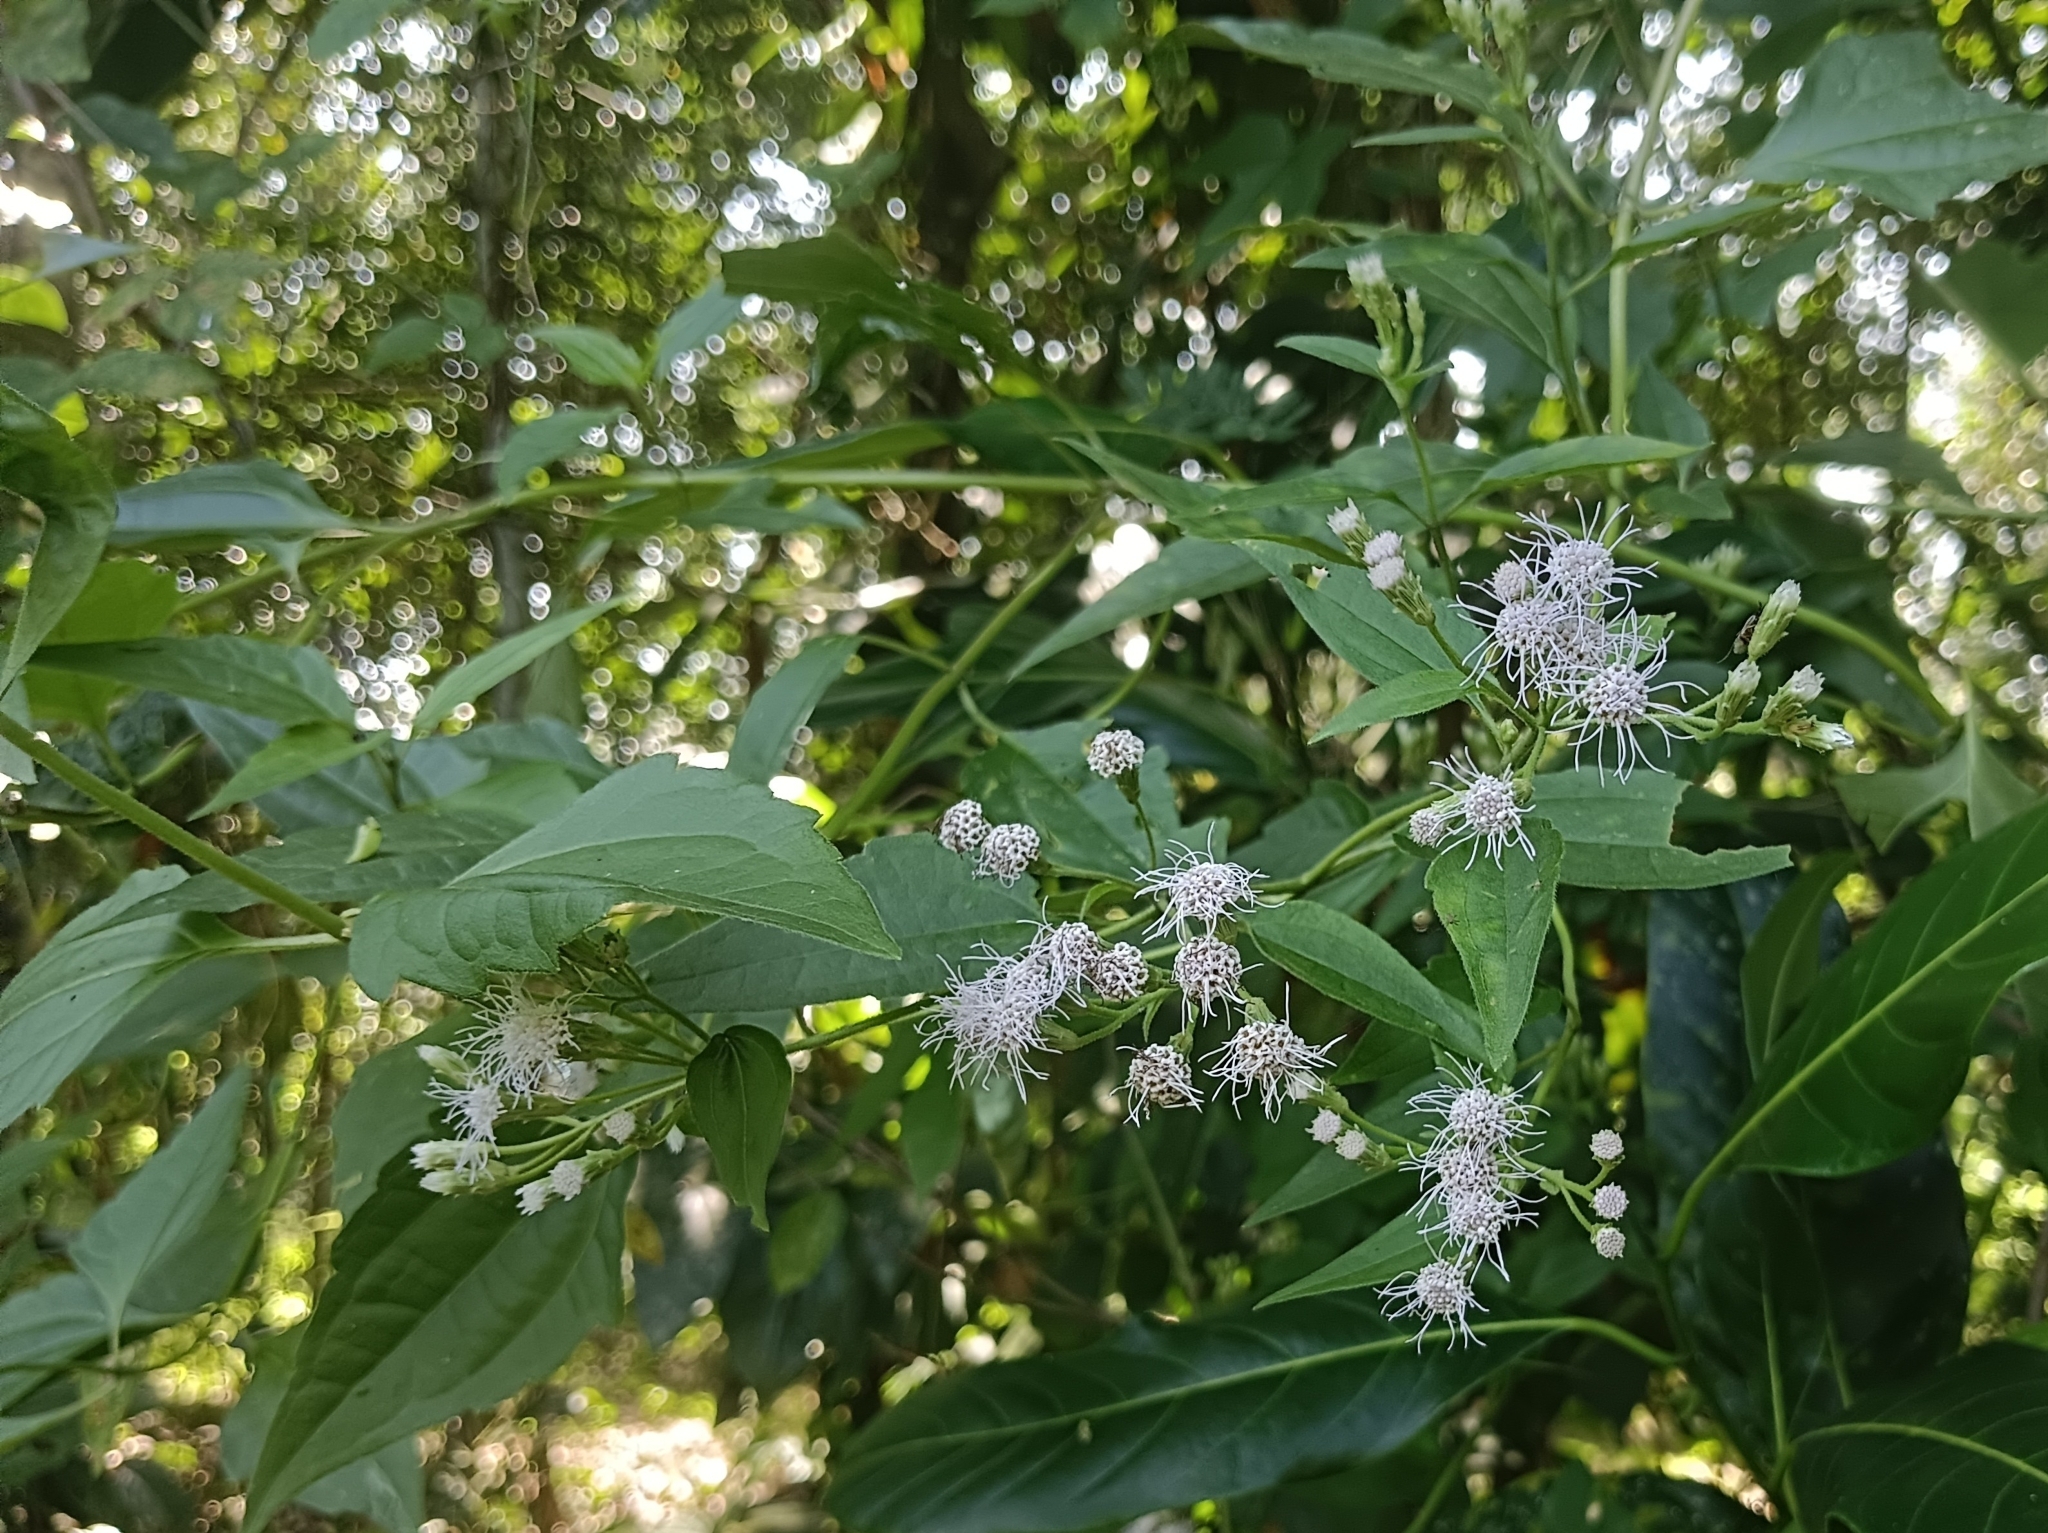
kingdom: Plantae
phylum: Tracheophyta
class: Magnoliopsida
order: Asterales
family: Asteraceae
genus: Chromolaena
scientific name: Chromolaena odorata
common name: Siamweed
